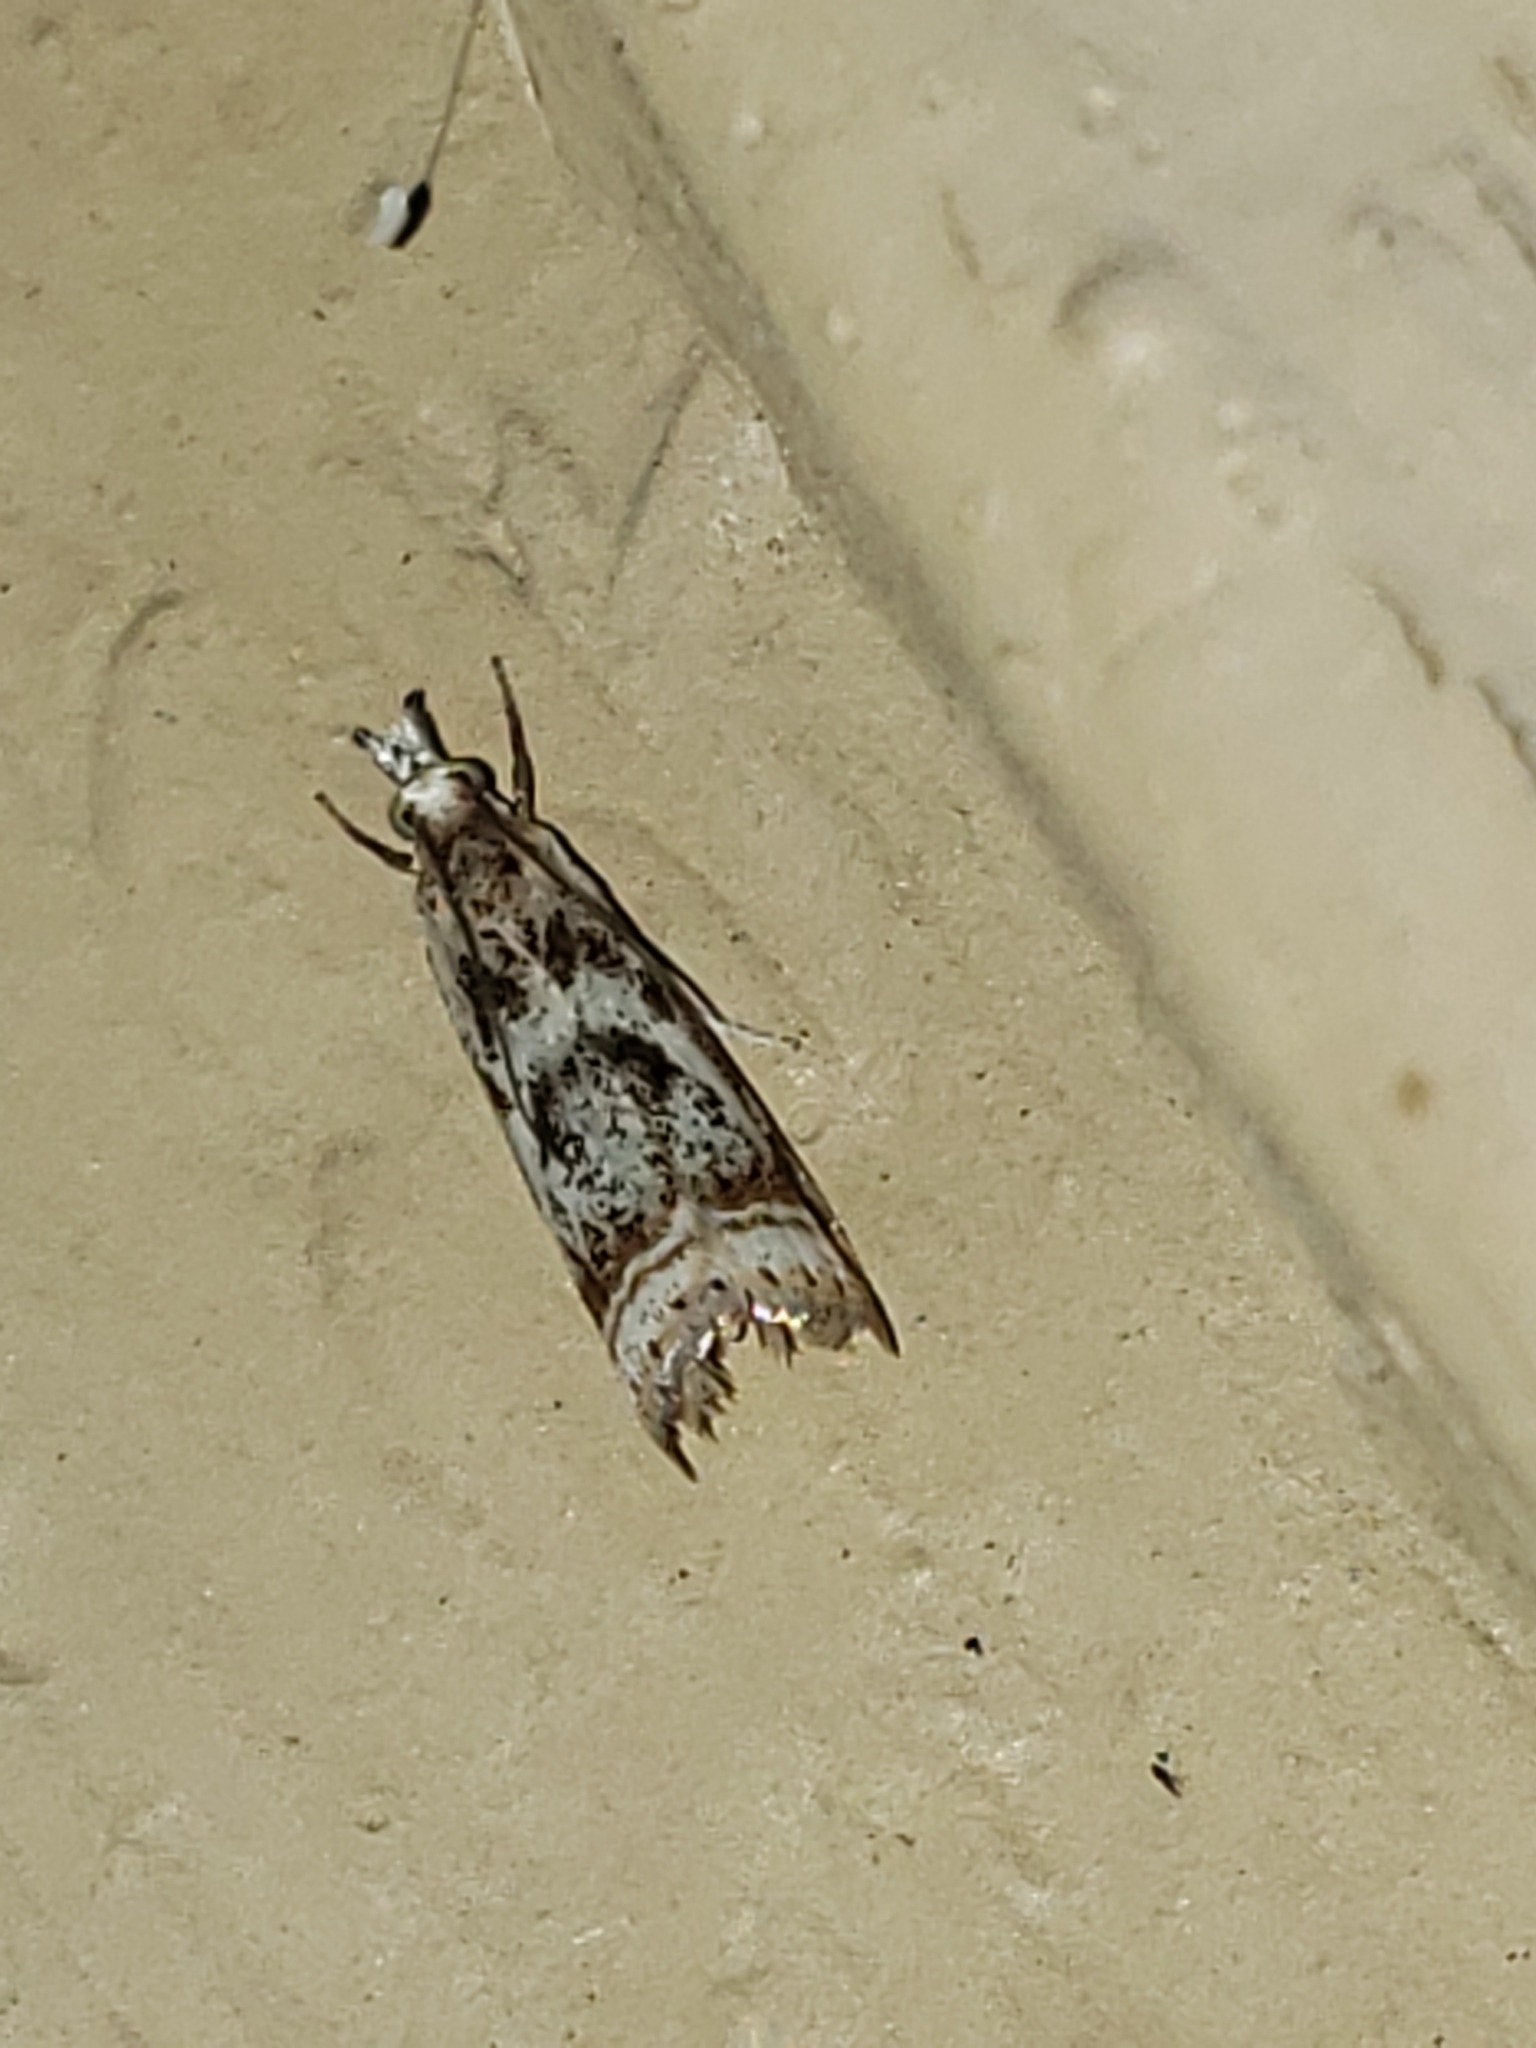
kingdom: Animalia
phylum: Arthropoda
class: Insecta
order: Lepidoptera
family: Crambidae
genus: Microcrambus
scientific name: Microcrambus elegans
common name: Elegant grass-veneer
